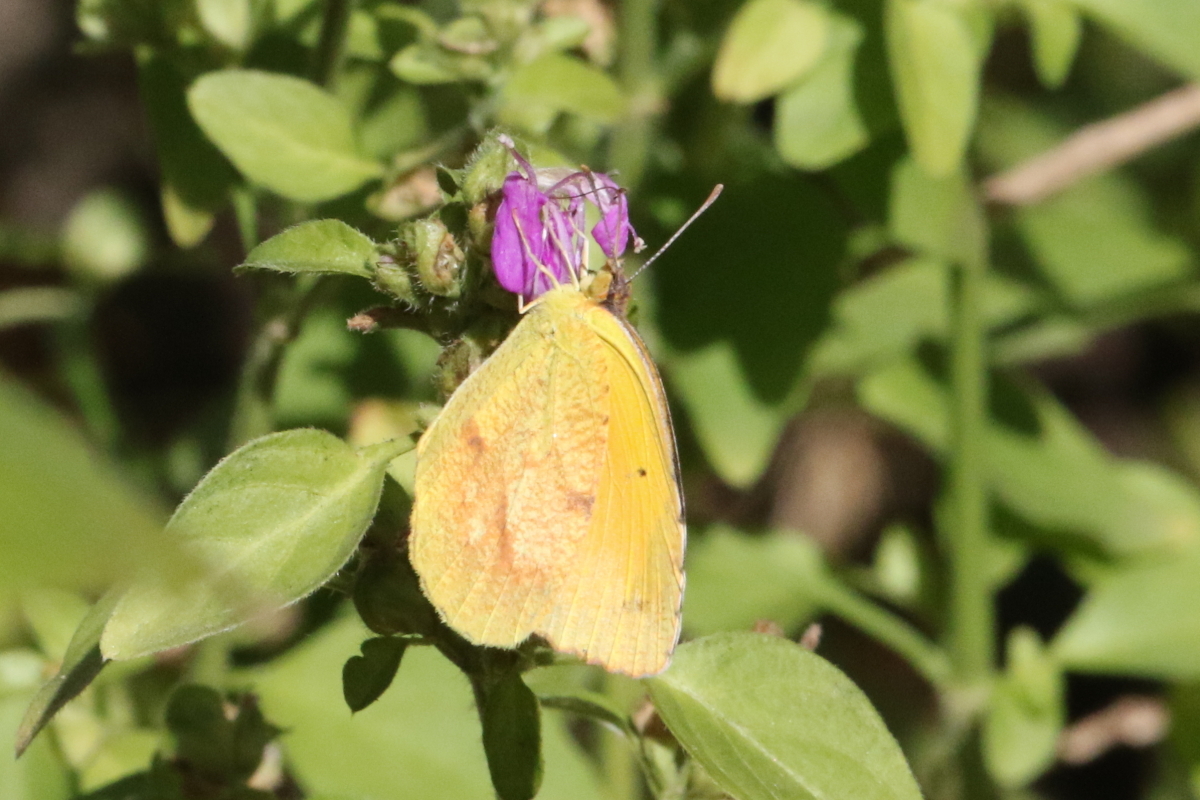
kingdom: Animalia
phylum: Arthropoda
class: Insecta
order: Lepidoptera
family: Pieridae
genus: Abaeis
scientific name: Abaeis nicippe
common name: Sleepy orange
